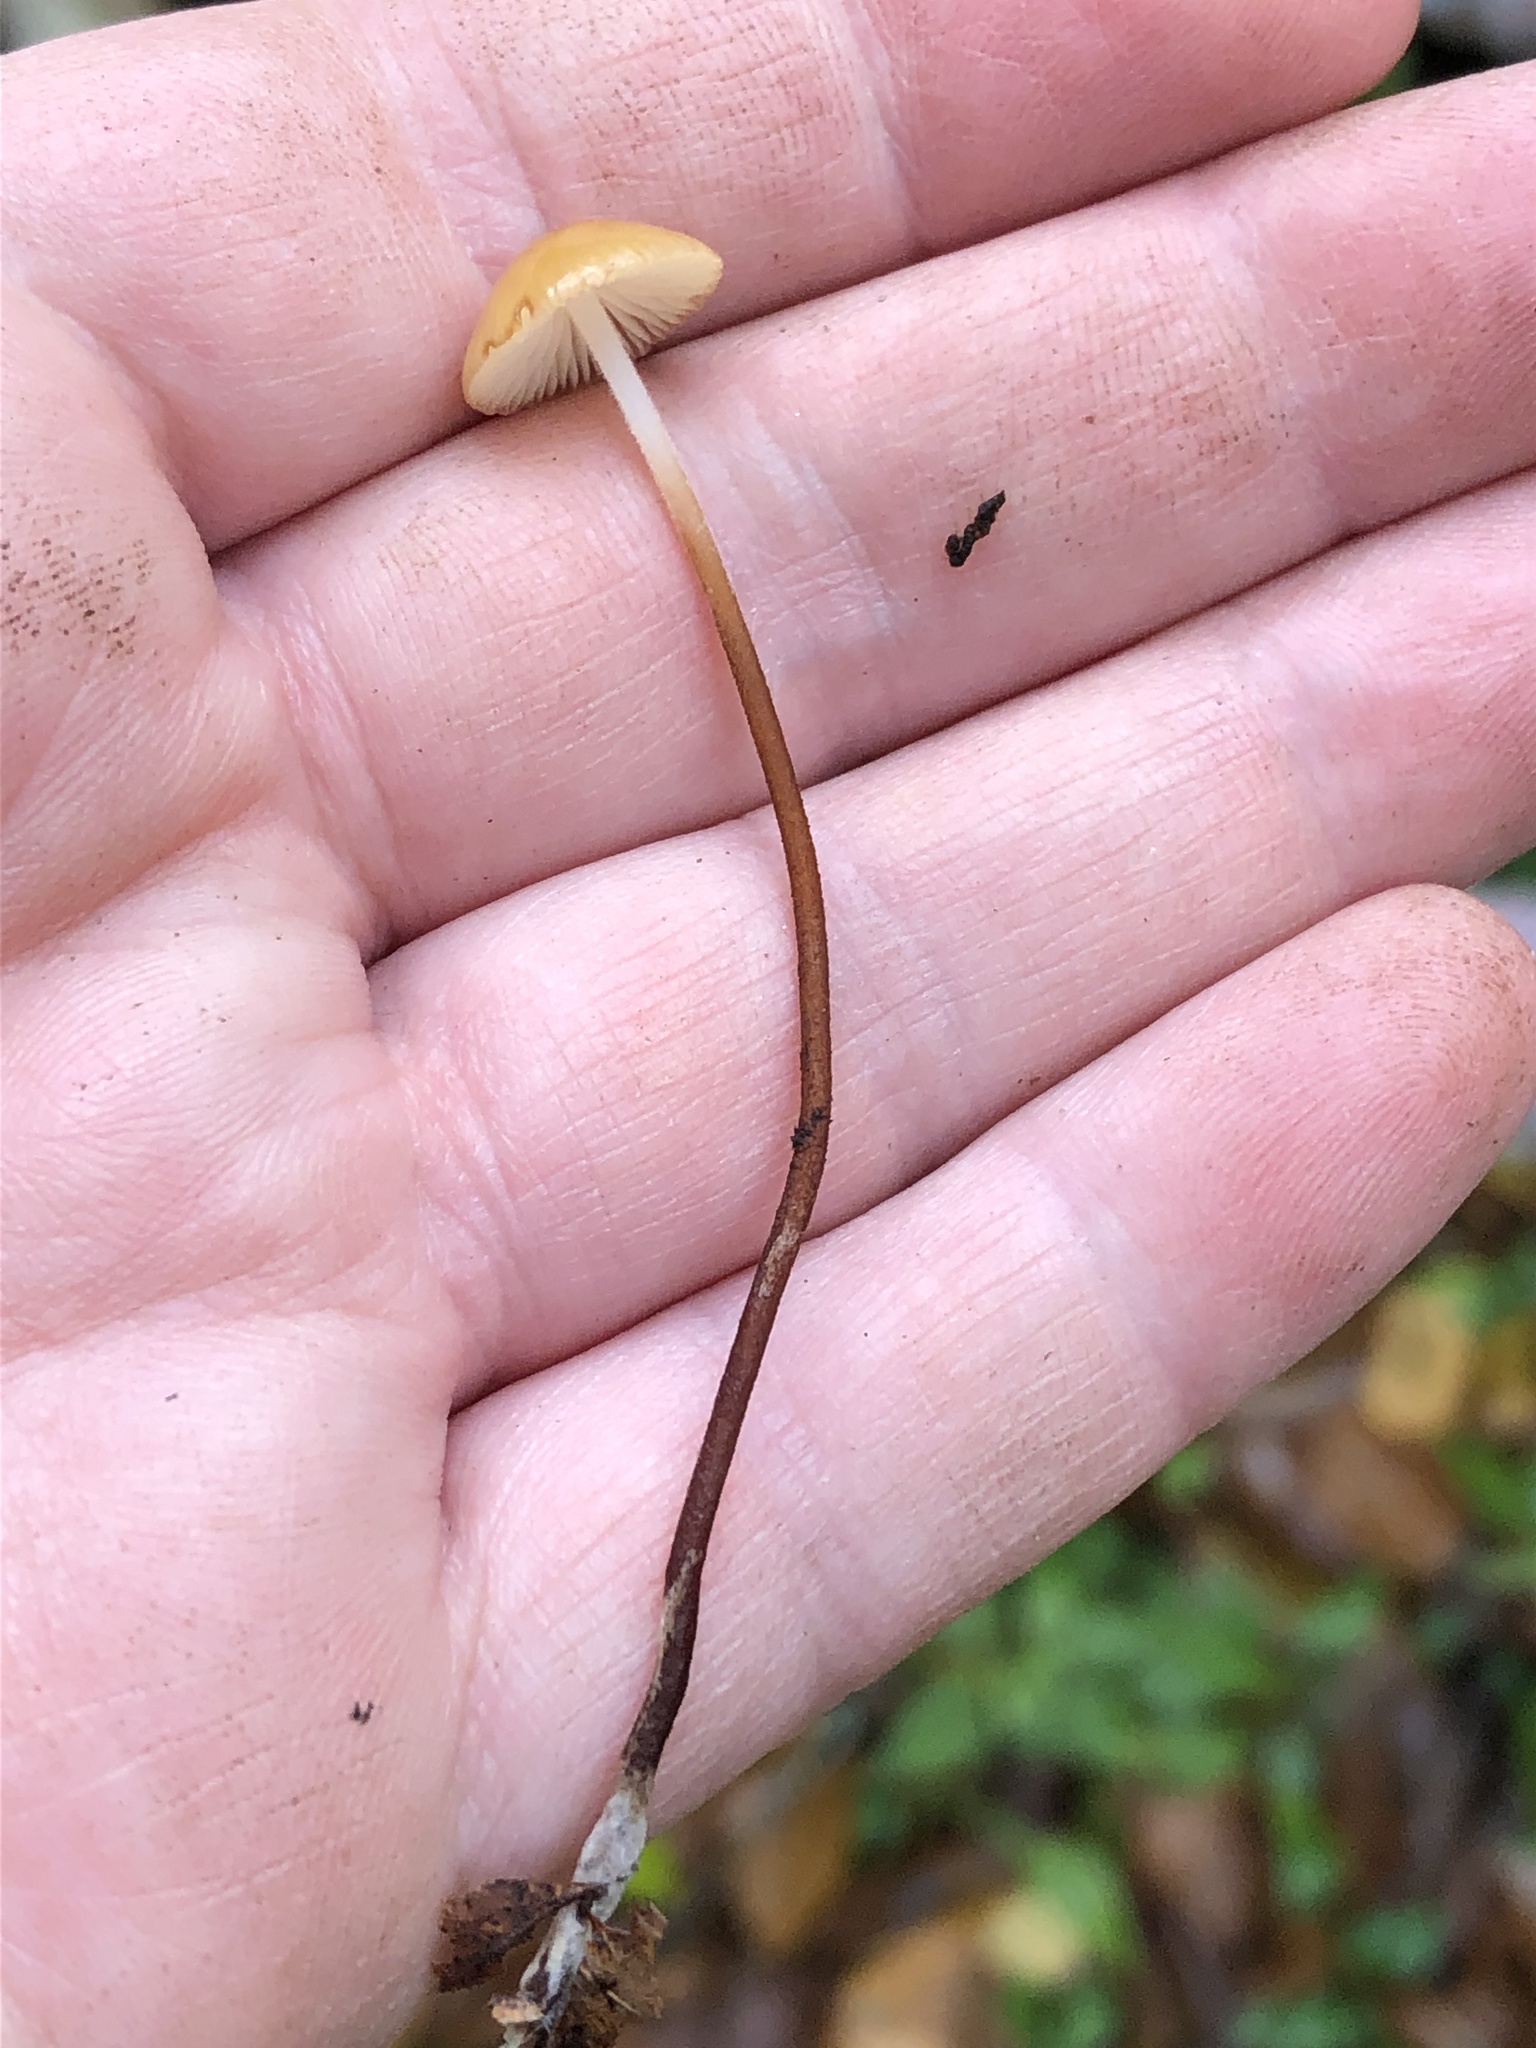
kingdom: Fungi
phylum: Basidiomycota
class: Agaricomycetes
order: Agaricales
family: Physalacriaceae
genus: Rhizomarasmius
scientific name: Rhizomarasmius pyrrhocephalus
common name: Hairy long stem marasmius
